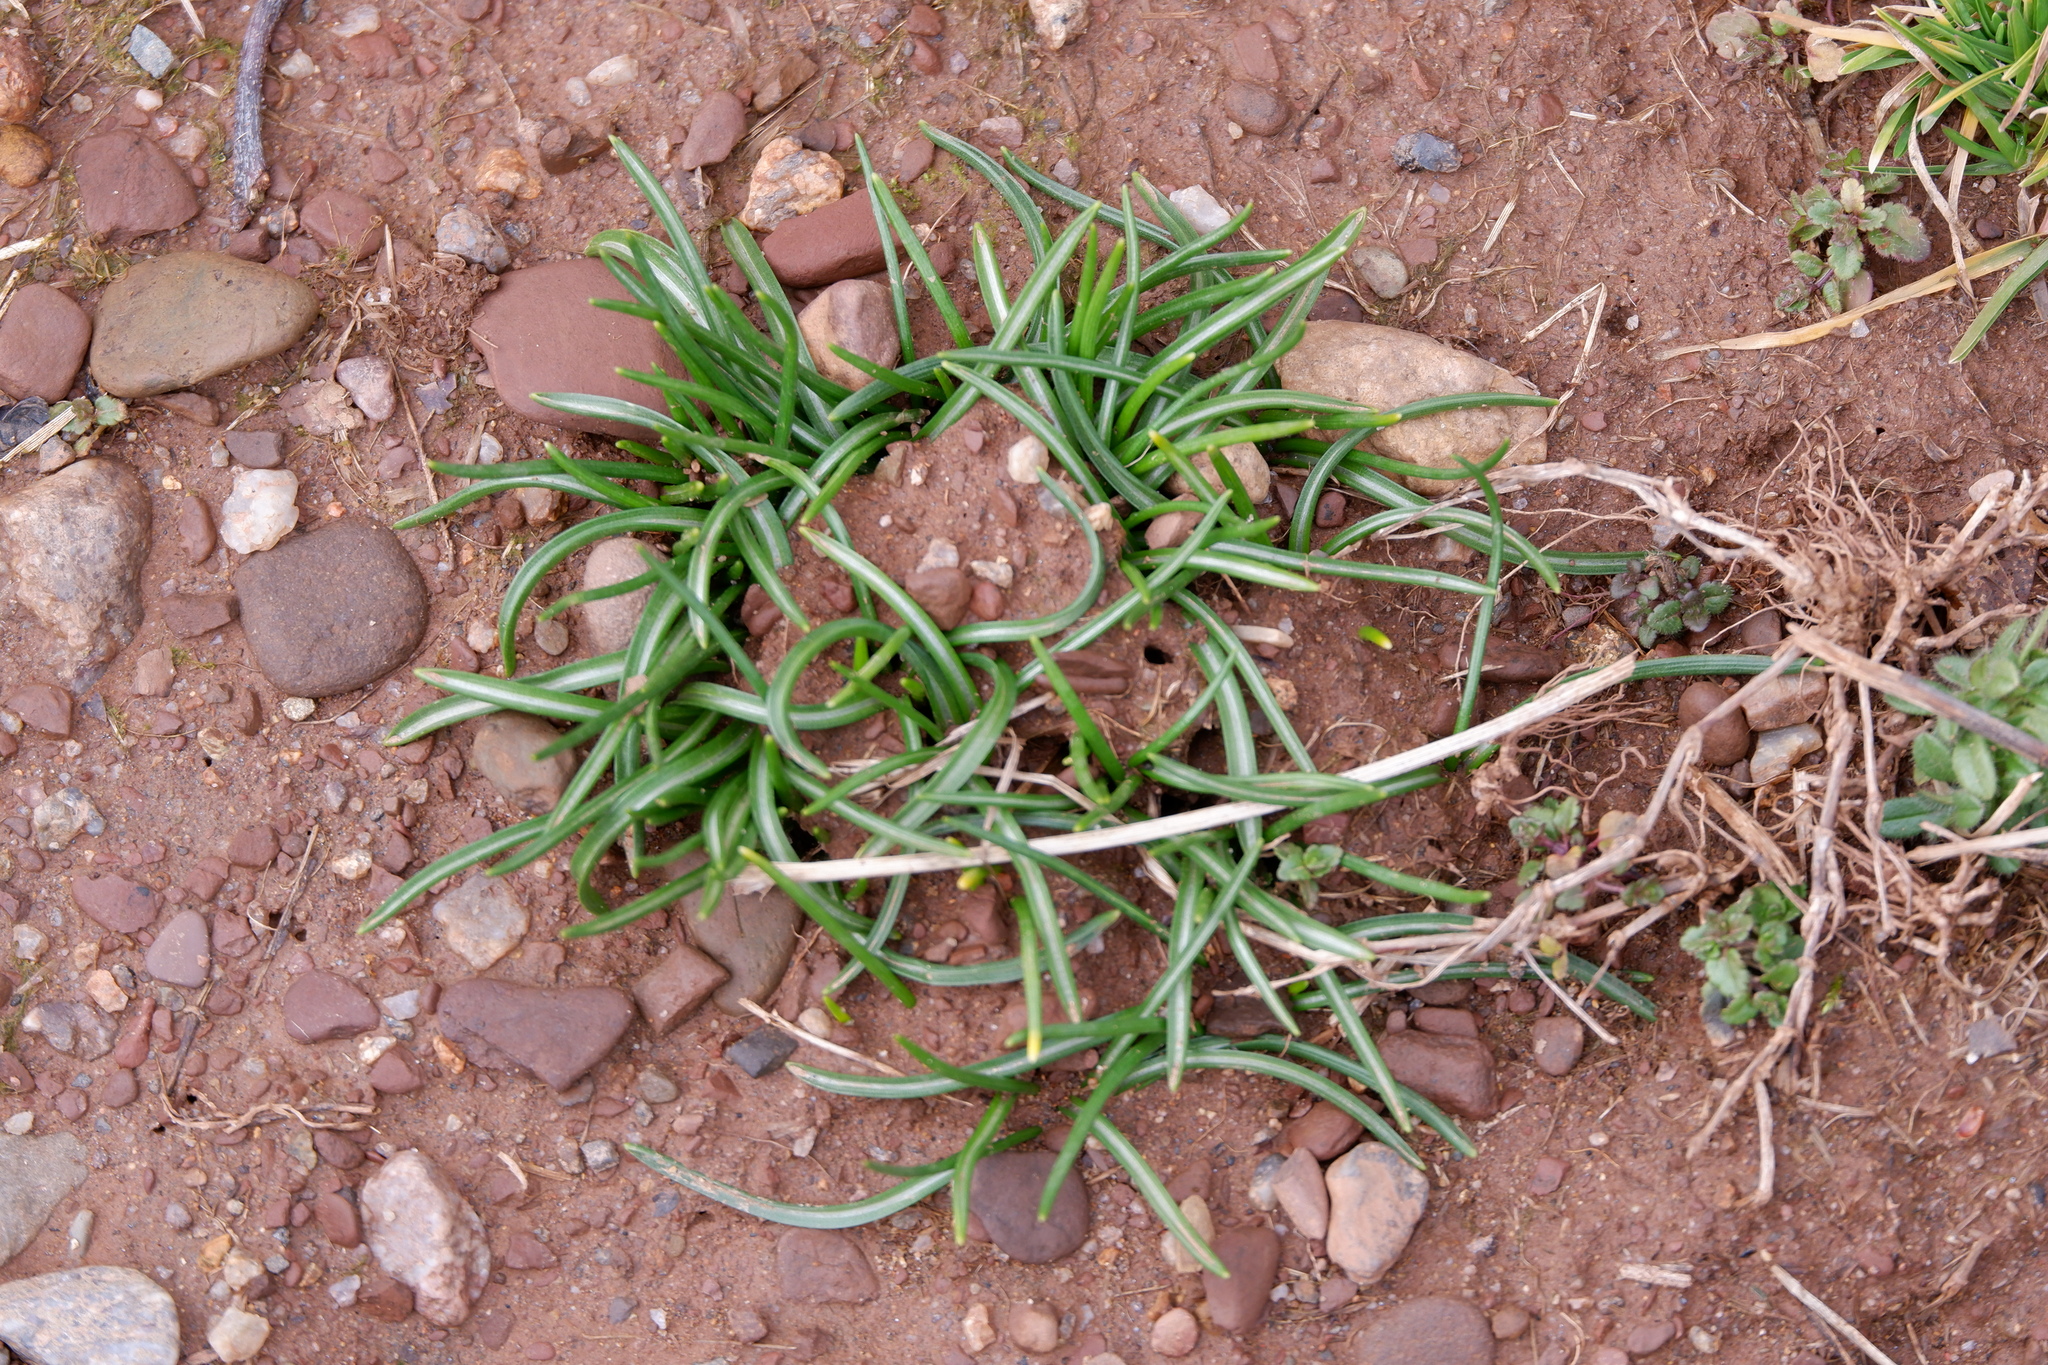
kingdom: Plantae
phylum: Tracheophyta
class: Liliopsida
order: Asparagales
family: Asparagaceae
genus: Ornithogalum
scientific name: Ornithogalum umbellatum
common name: Garden star-of-bethlehem
